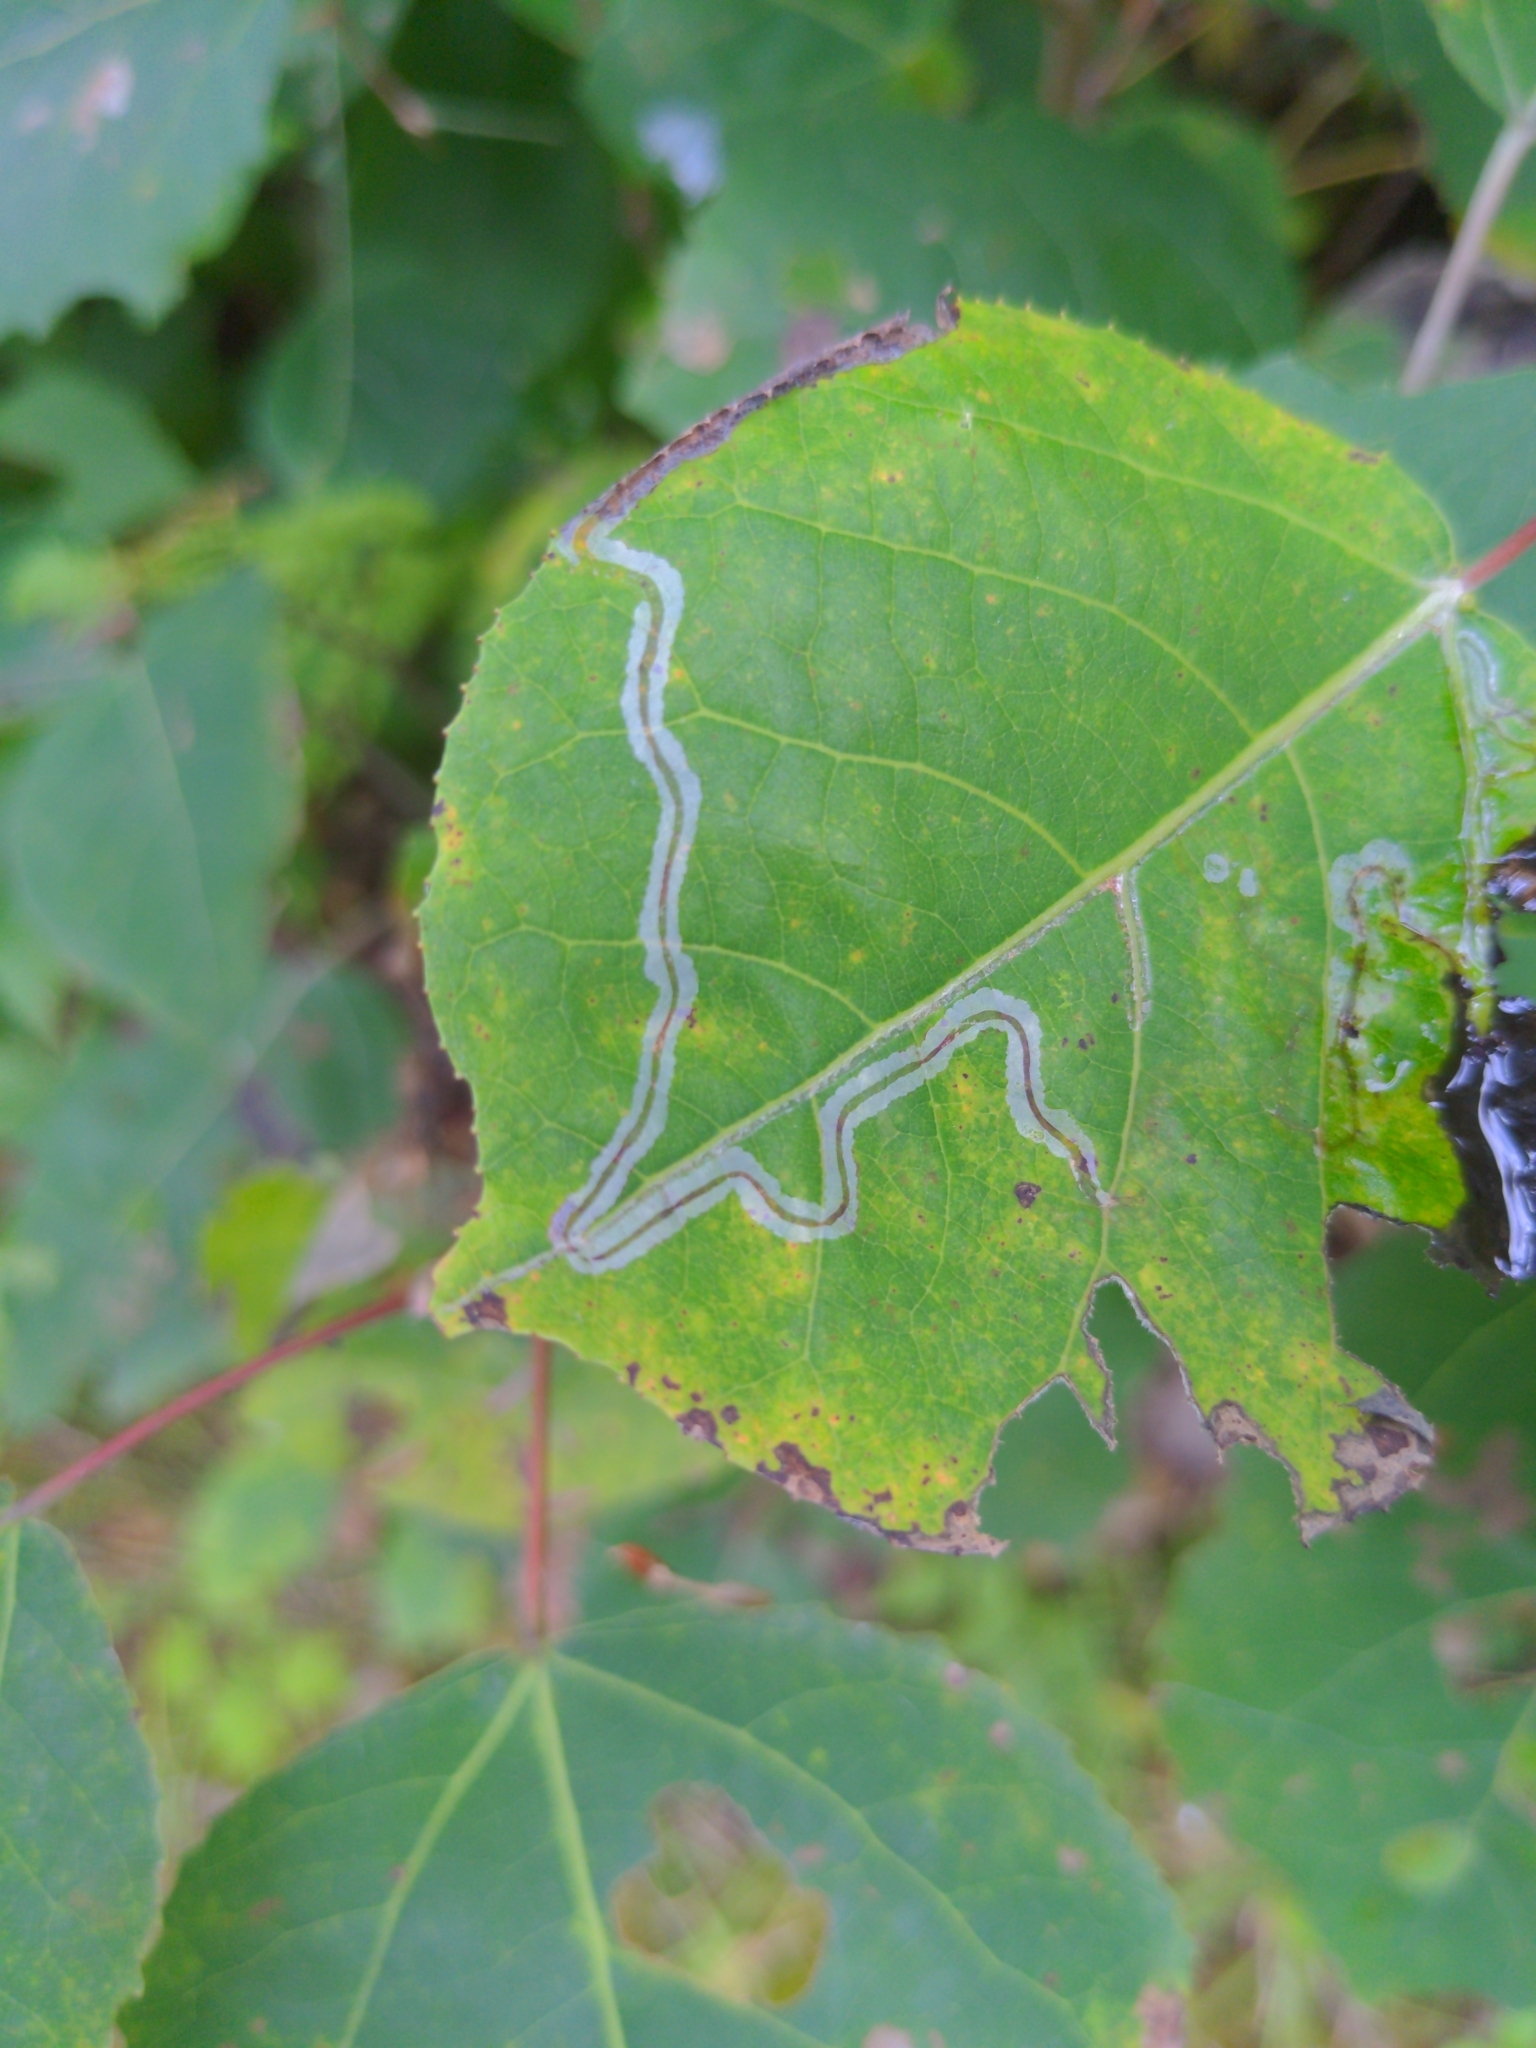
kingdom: Animalia
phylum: Arthropoda
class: Insecta
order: Lepidoptera
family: Gracillariidae
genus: Phyllocnistis
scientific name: Phyllocnistis populiella
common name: Aspen serpentine leafminer moth
